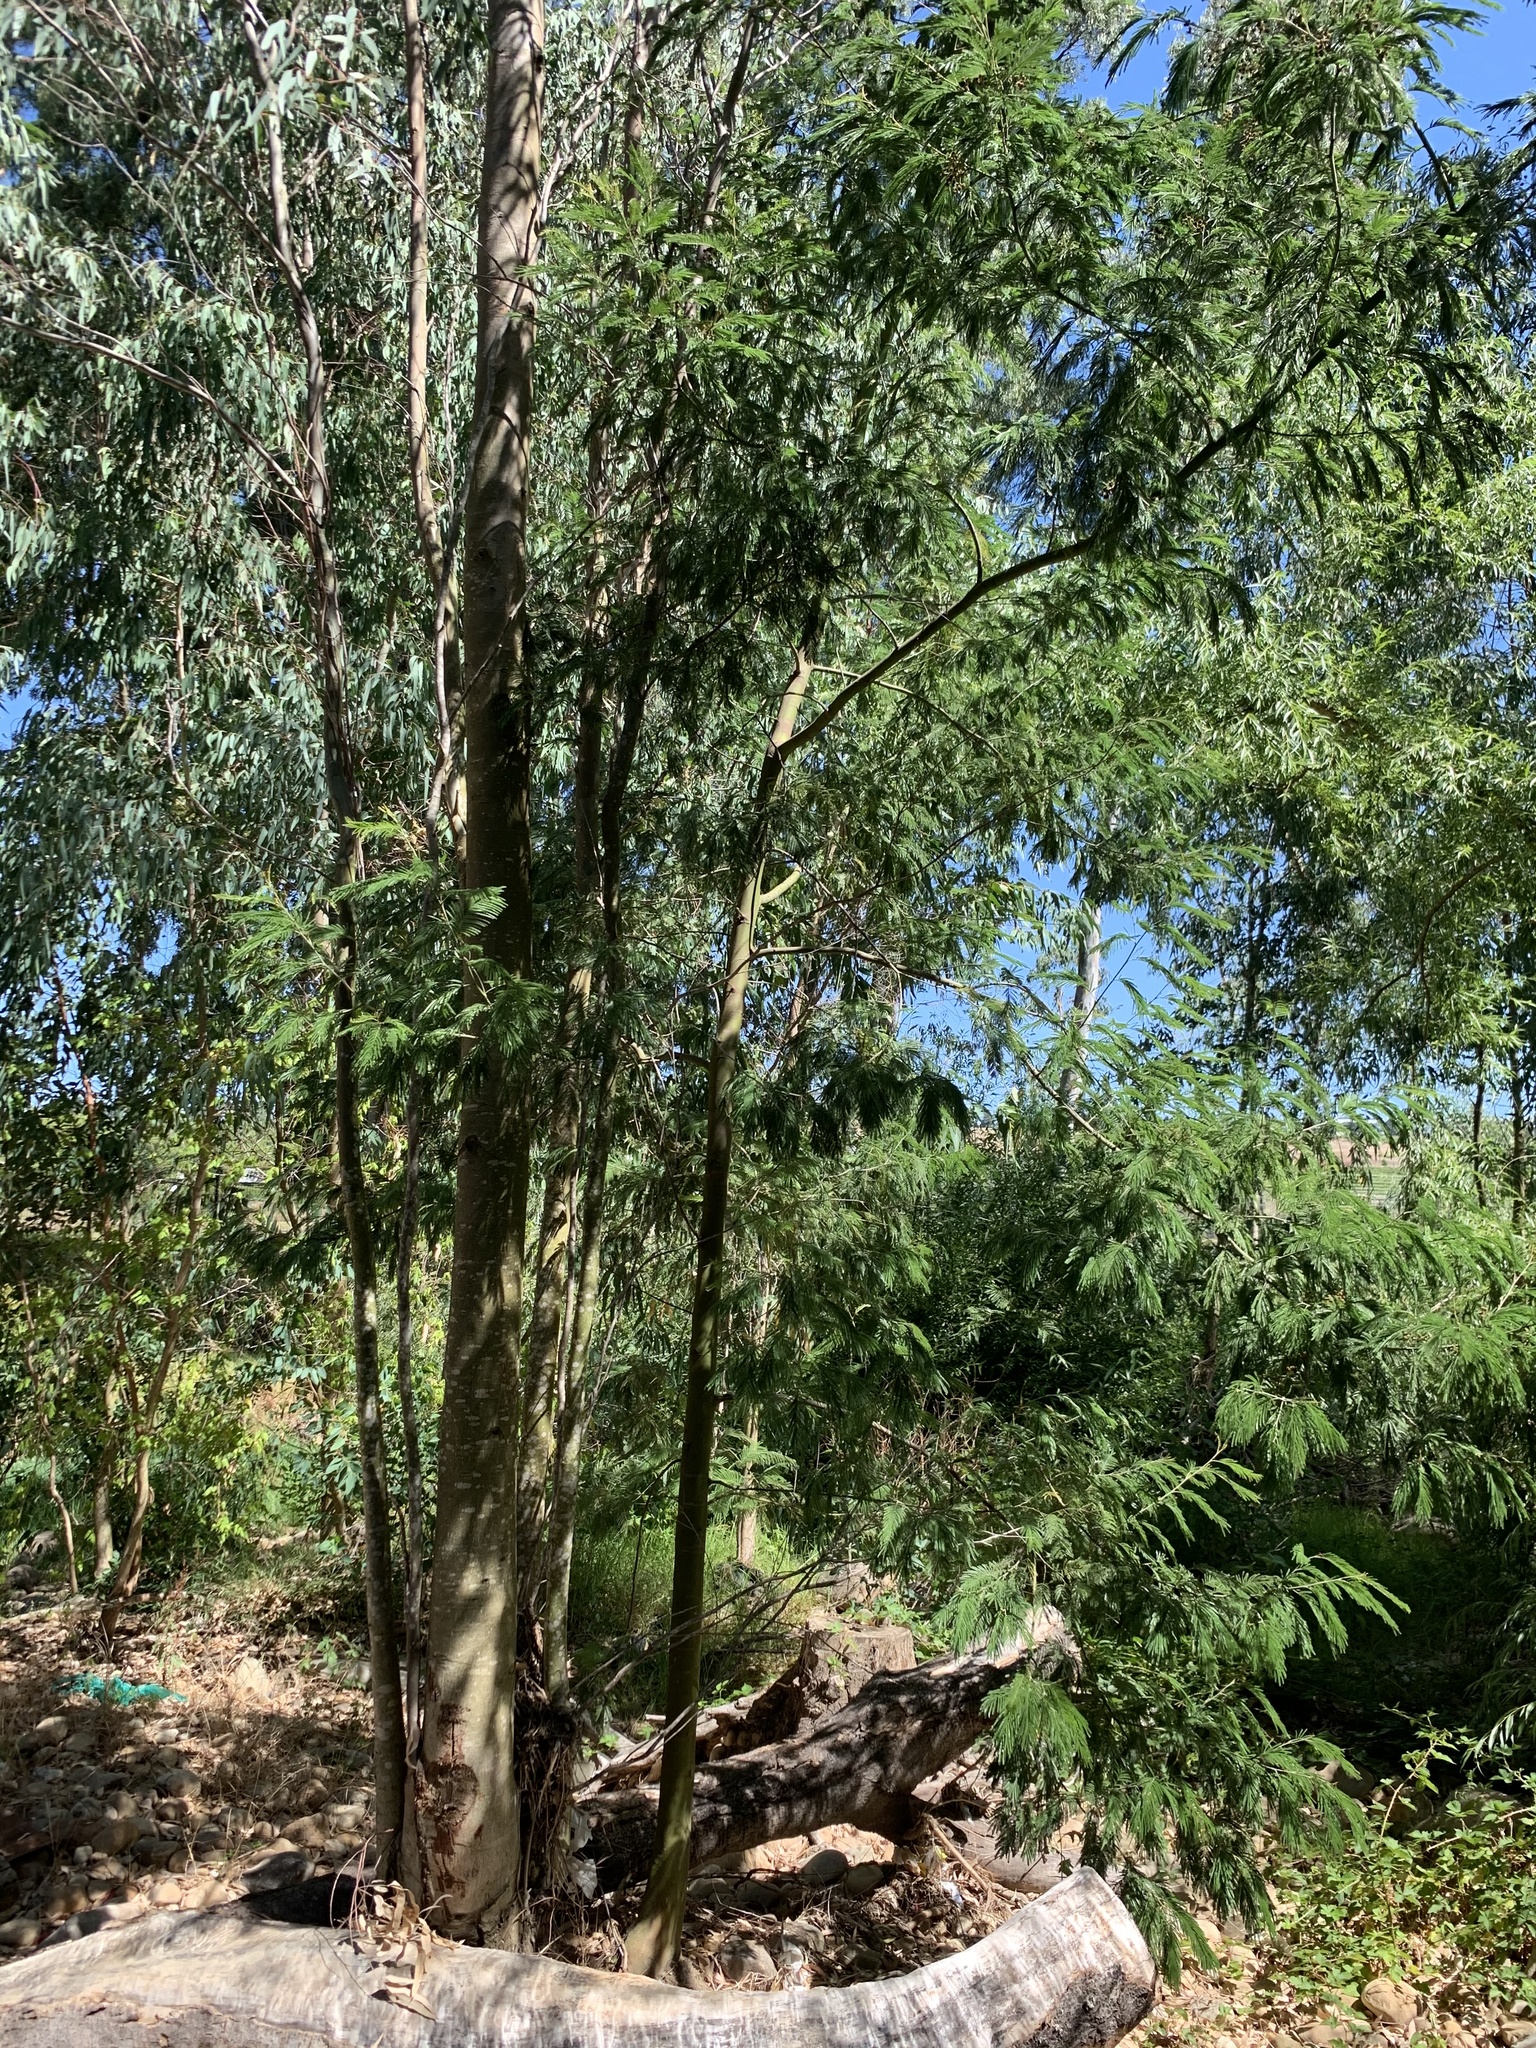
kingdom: Plantae
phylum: Tracheophyta
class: Magnoliopsida
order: Fabales
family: Fabaceae
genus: Acacia
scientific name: Acacia mearnsii
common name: Black wattle
